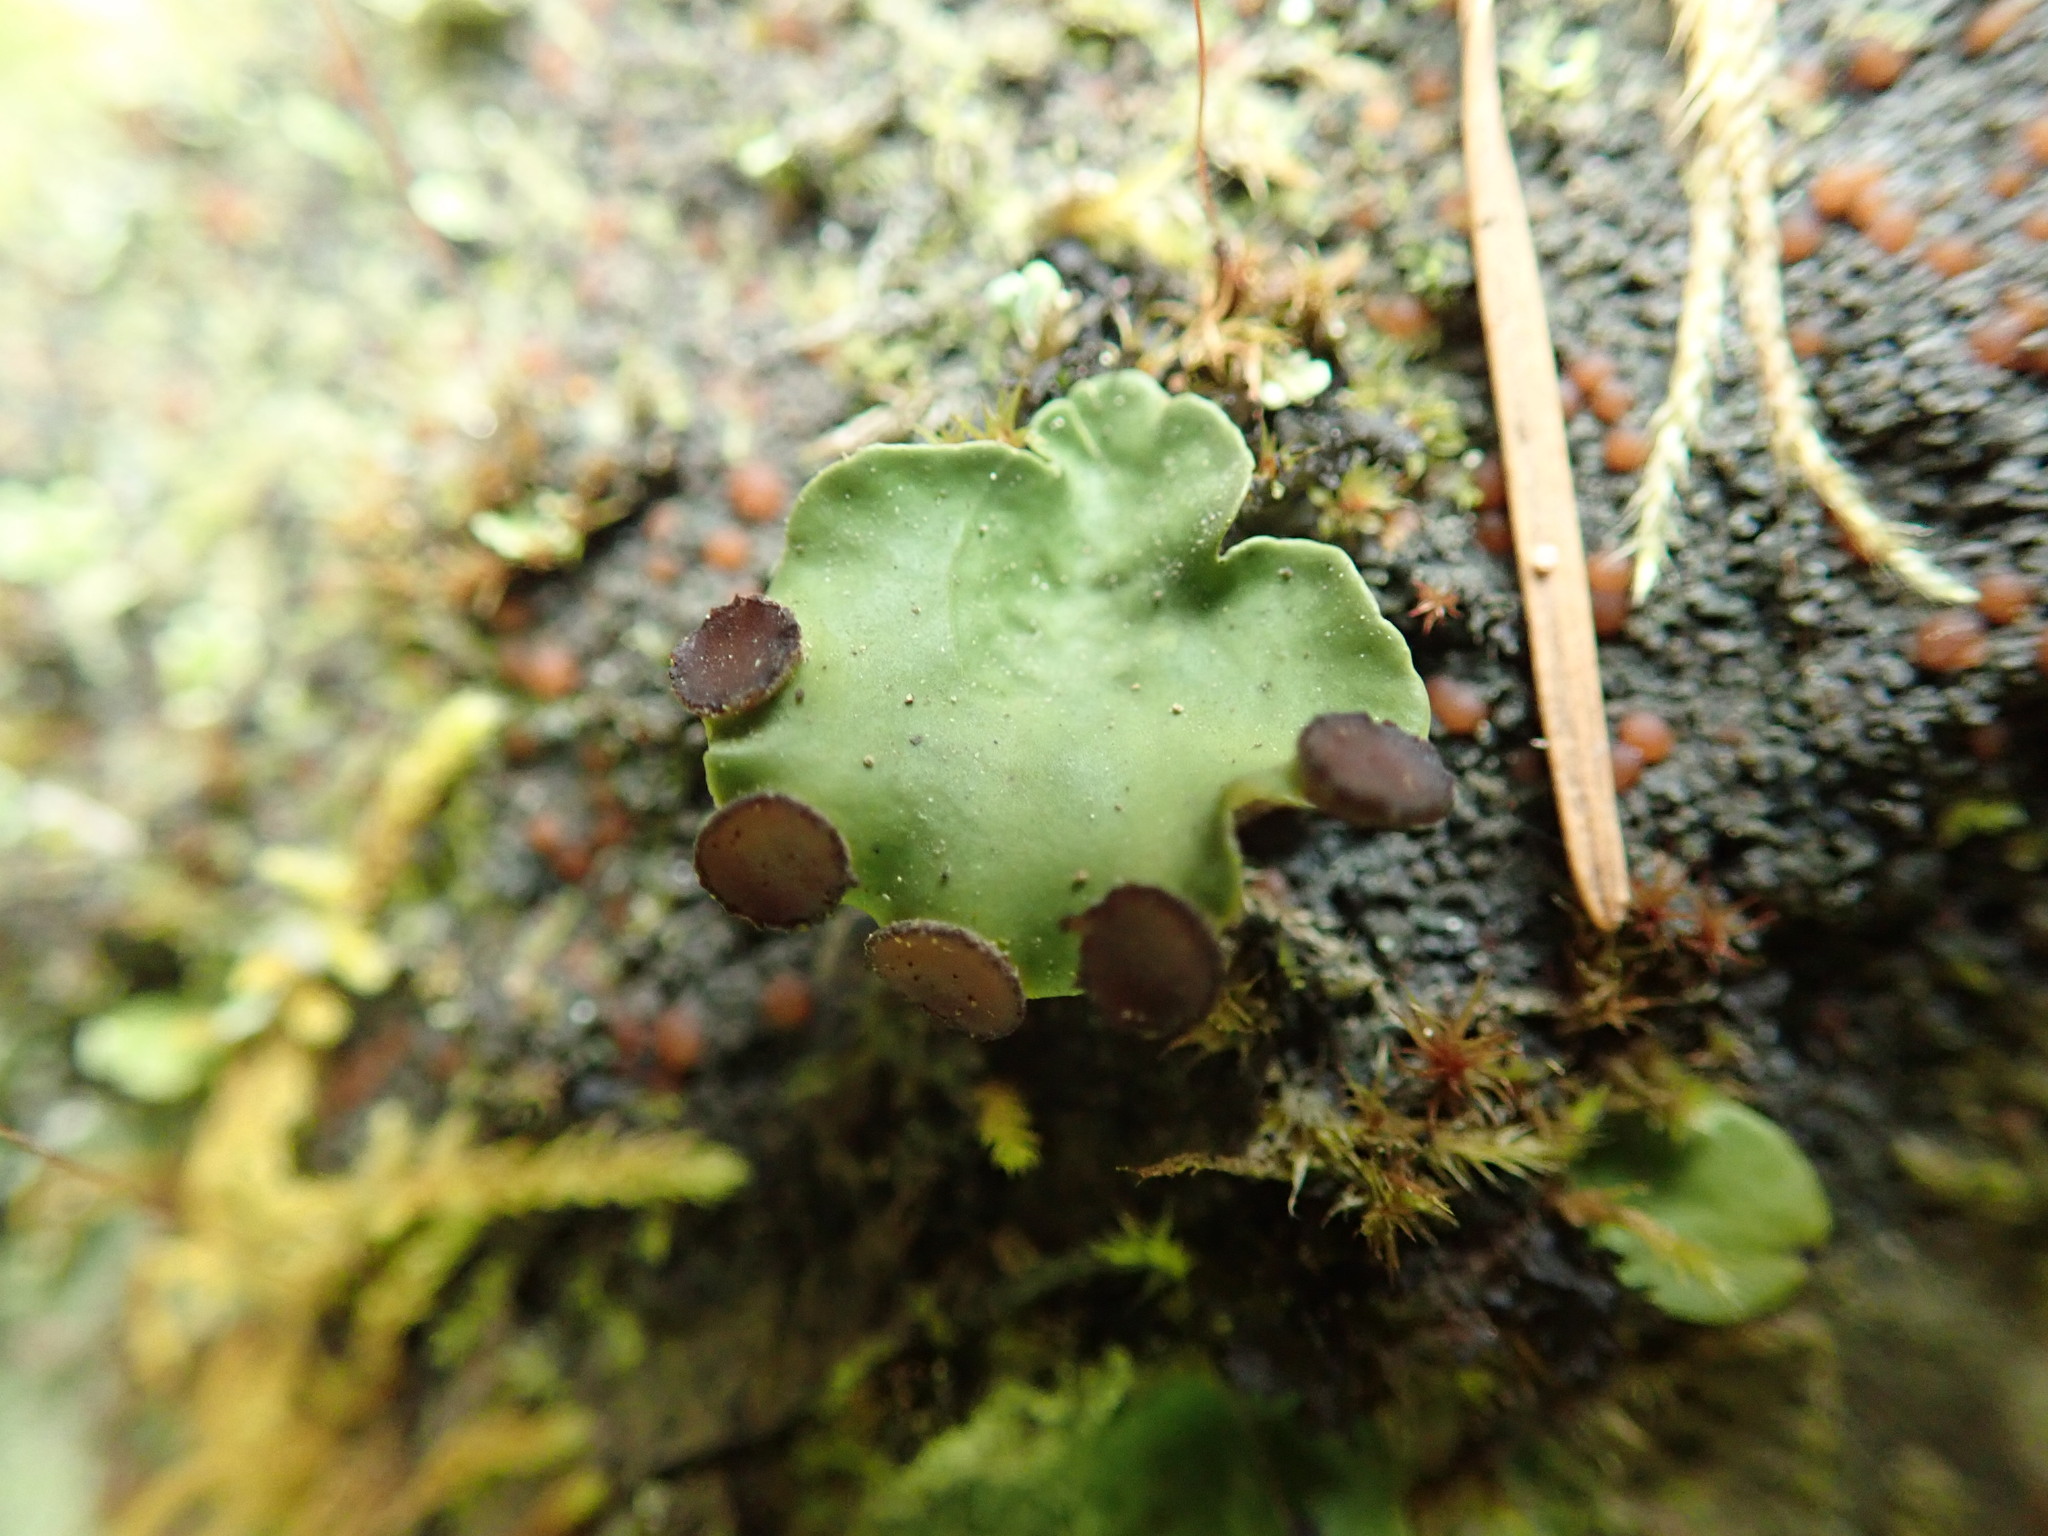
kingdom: Fungi
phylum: Ascomycota
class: Lecanoromycetes
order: Peltigerales
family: Peltigeraceae
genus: Peltigera
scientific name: Peltigera venosa
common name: Pixie gowns lichen
